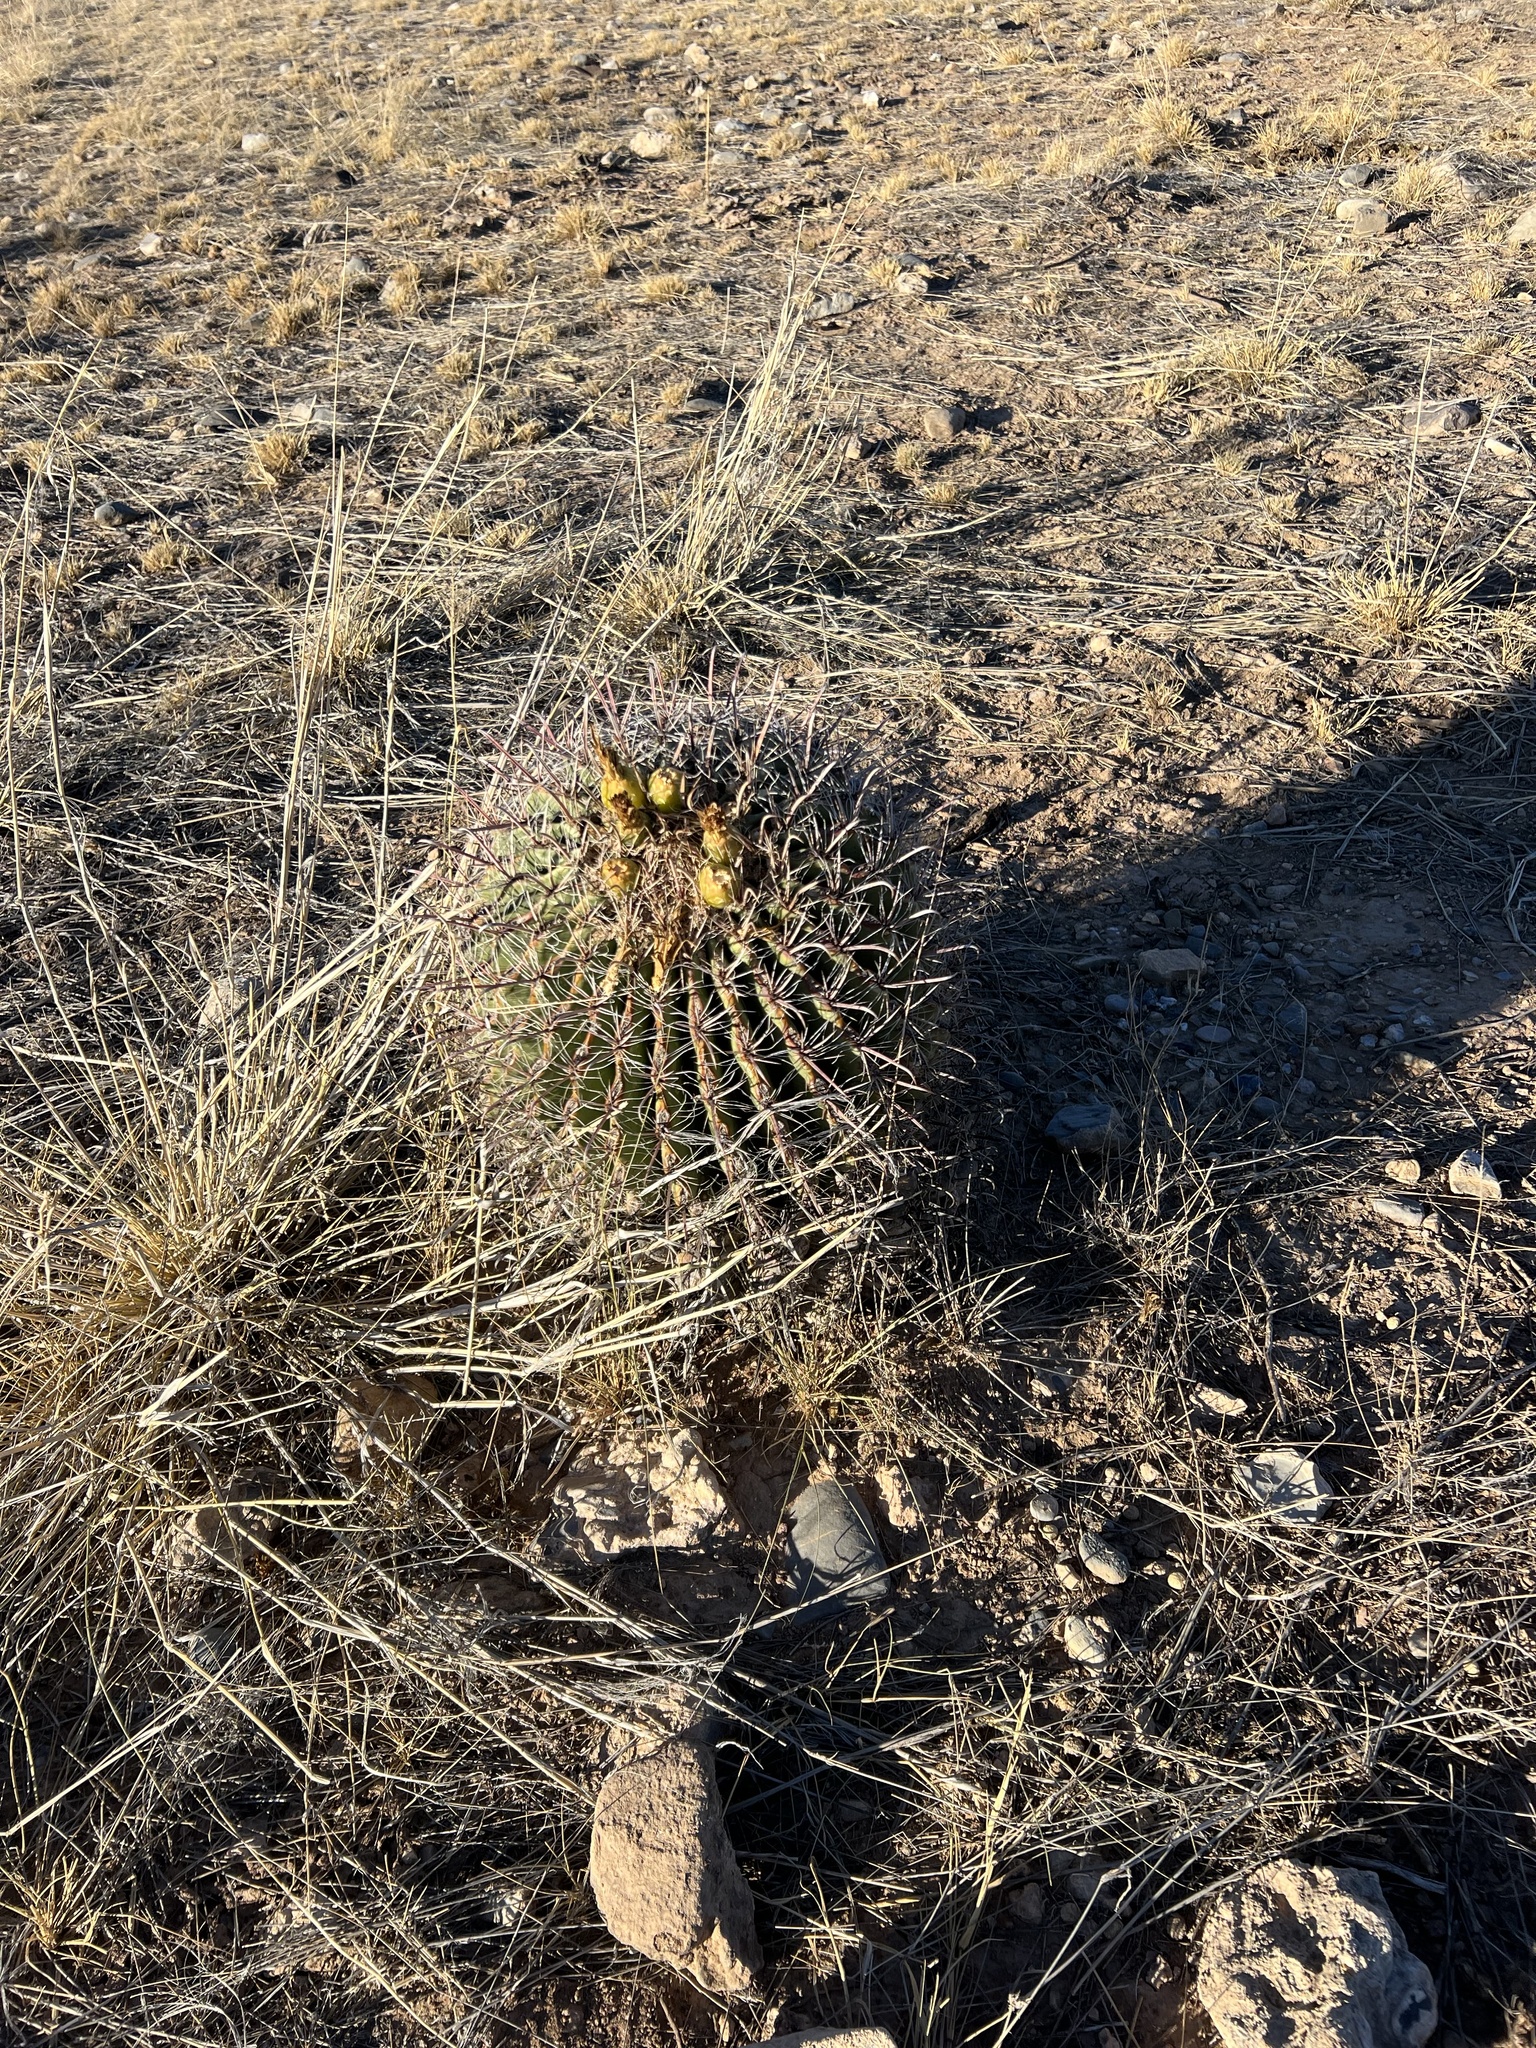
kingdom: Plantae
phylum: Tracheophyta
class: Magnoliopsida
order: Caryophyllales
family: Cactaceae
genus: Ferocactus
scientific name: Ferocactus wislizeni
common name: Candy barrel cactus
